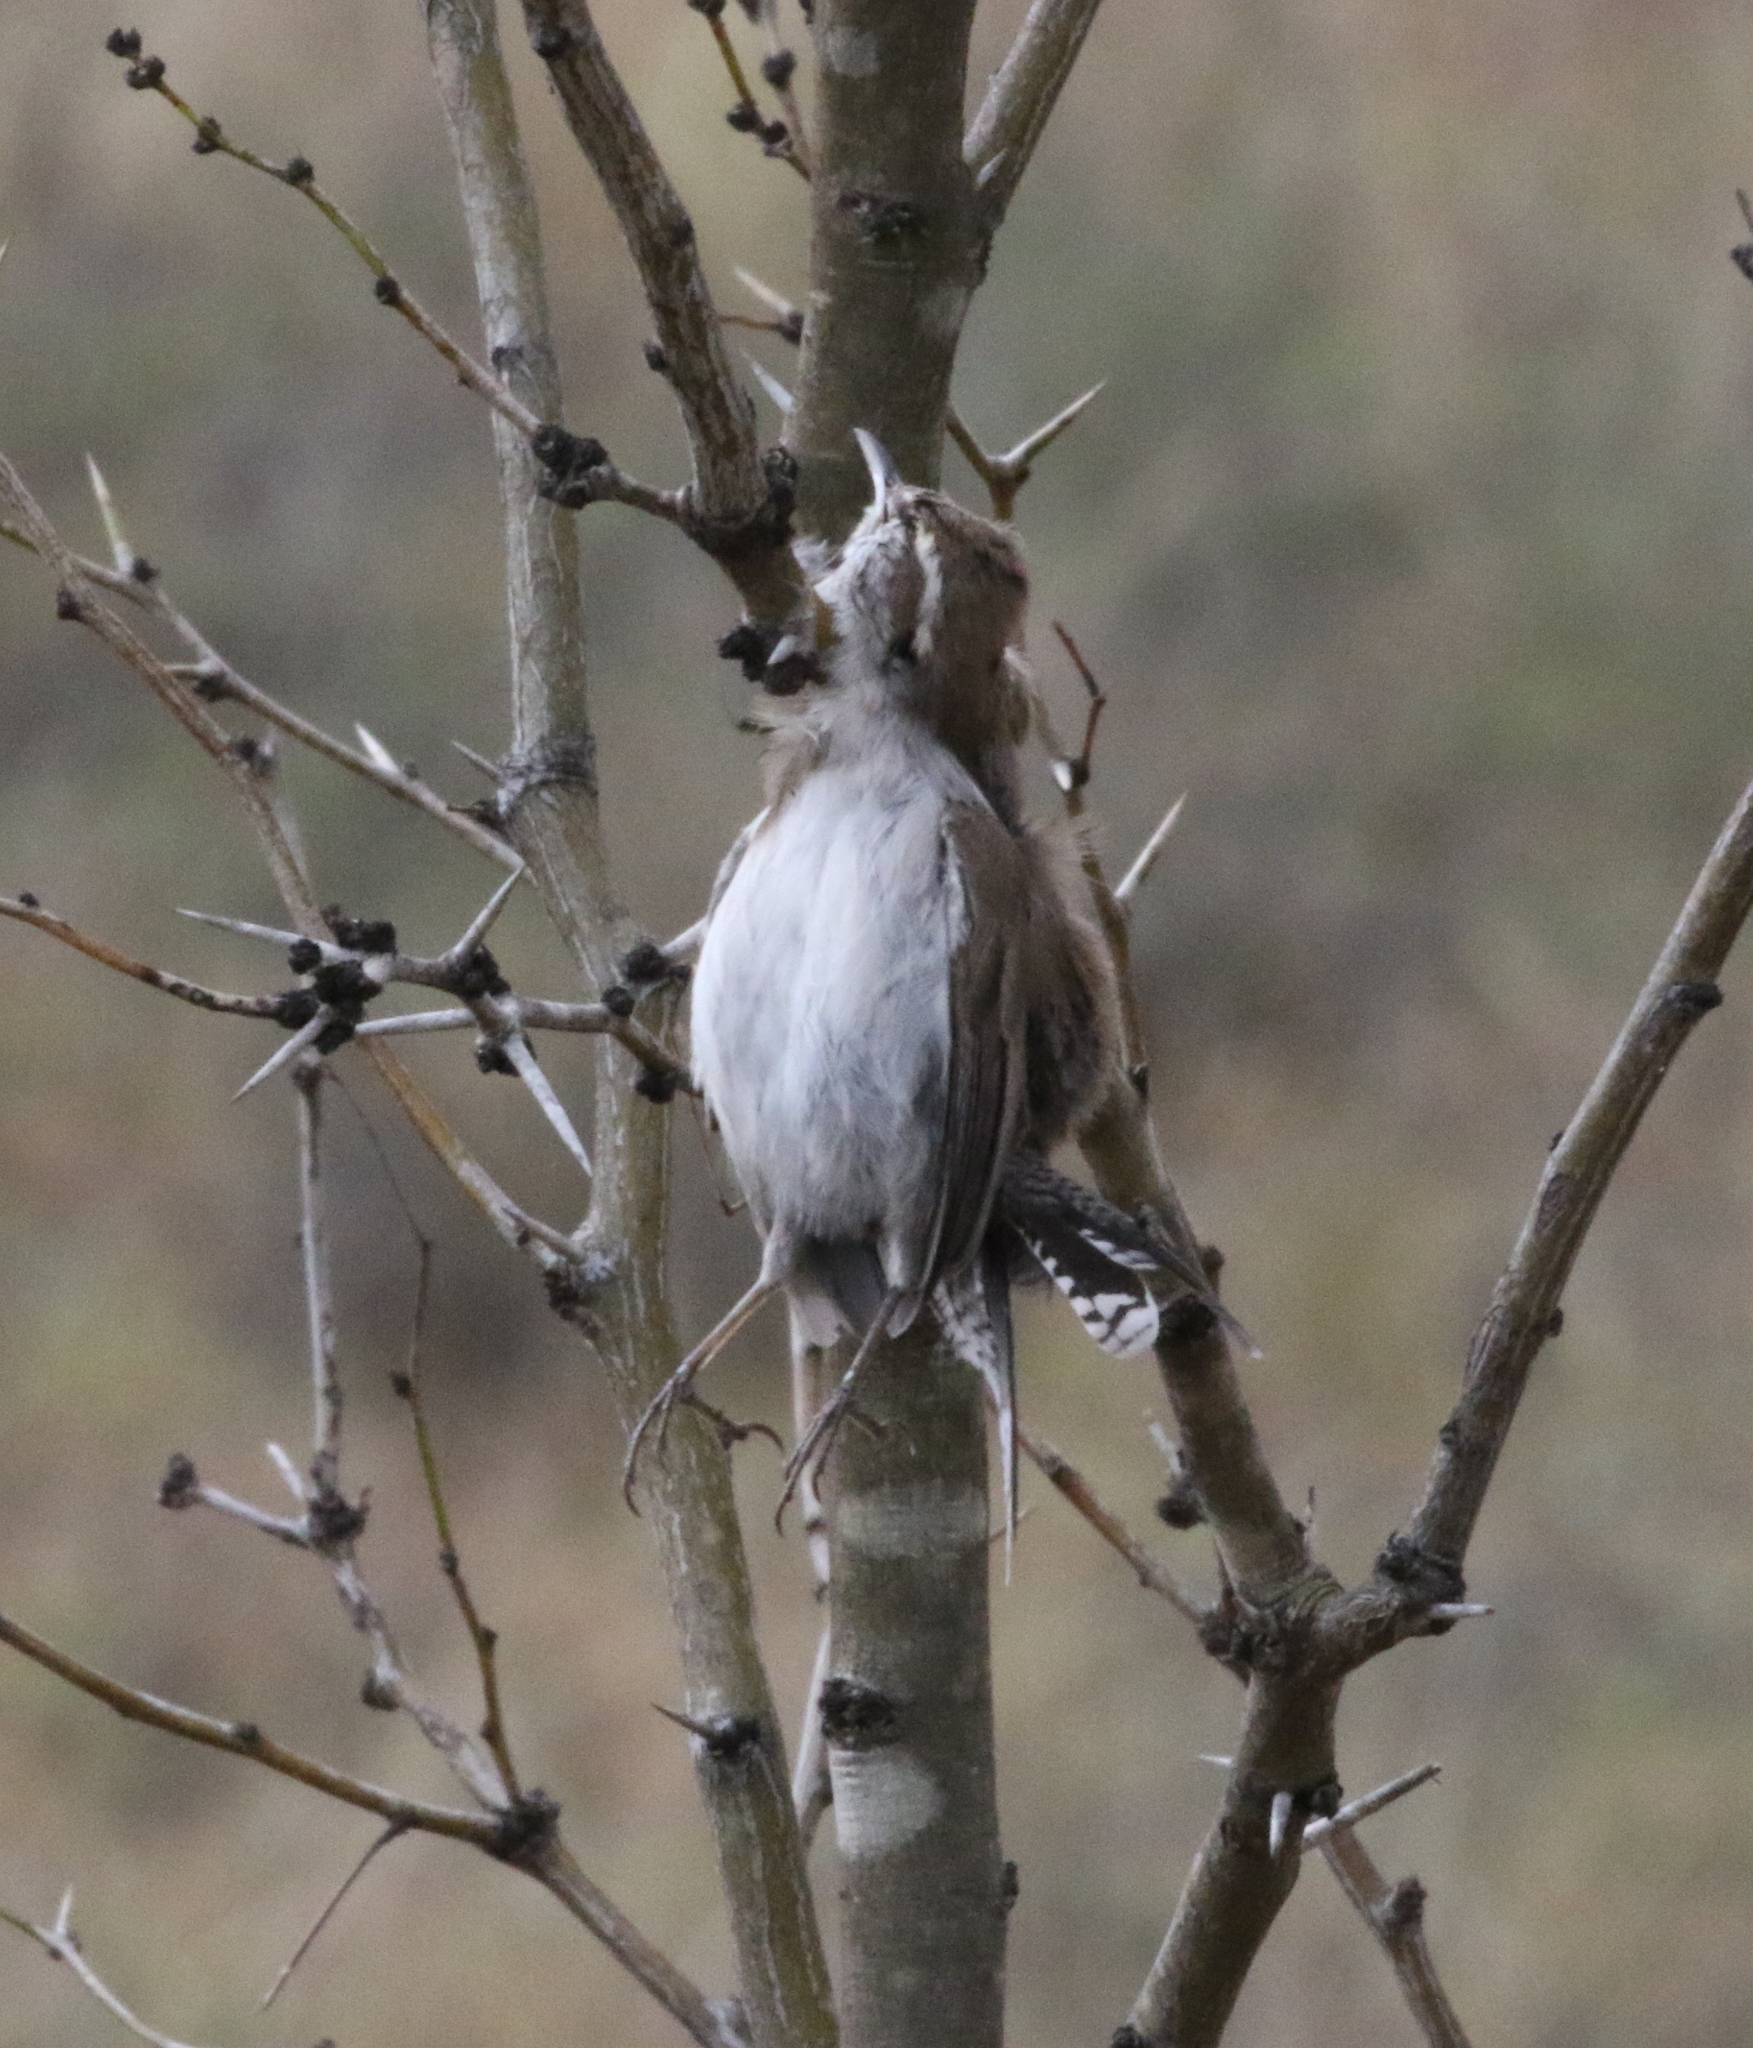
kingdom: Animalia
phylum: Chordata
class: Aves
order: Passeriformes
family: Troglodytidae
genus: Thryomanes
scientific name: Thryomanes bewickii
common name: Bewick's wren
